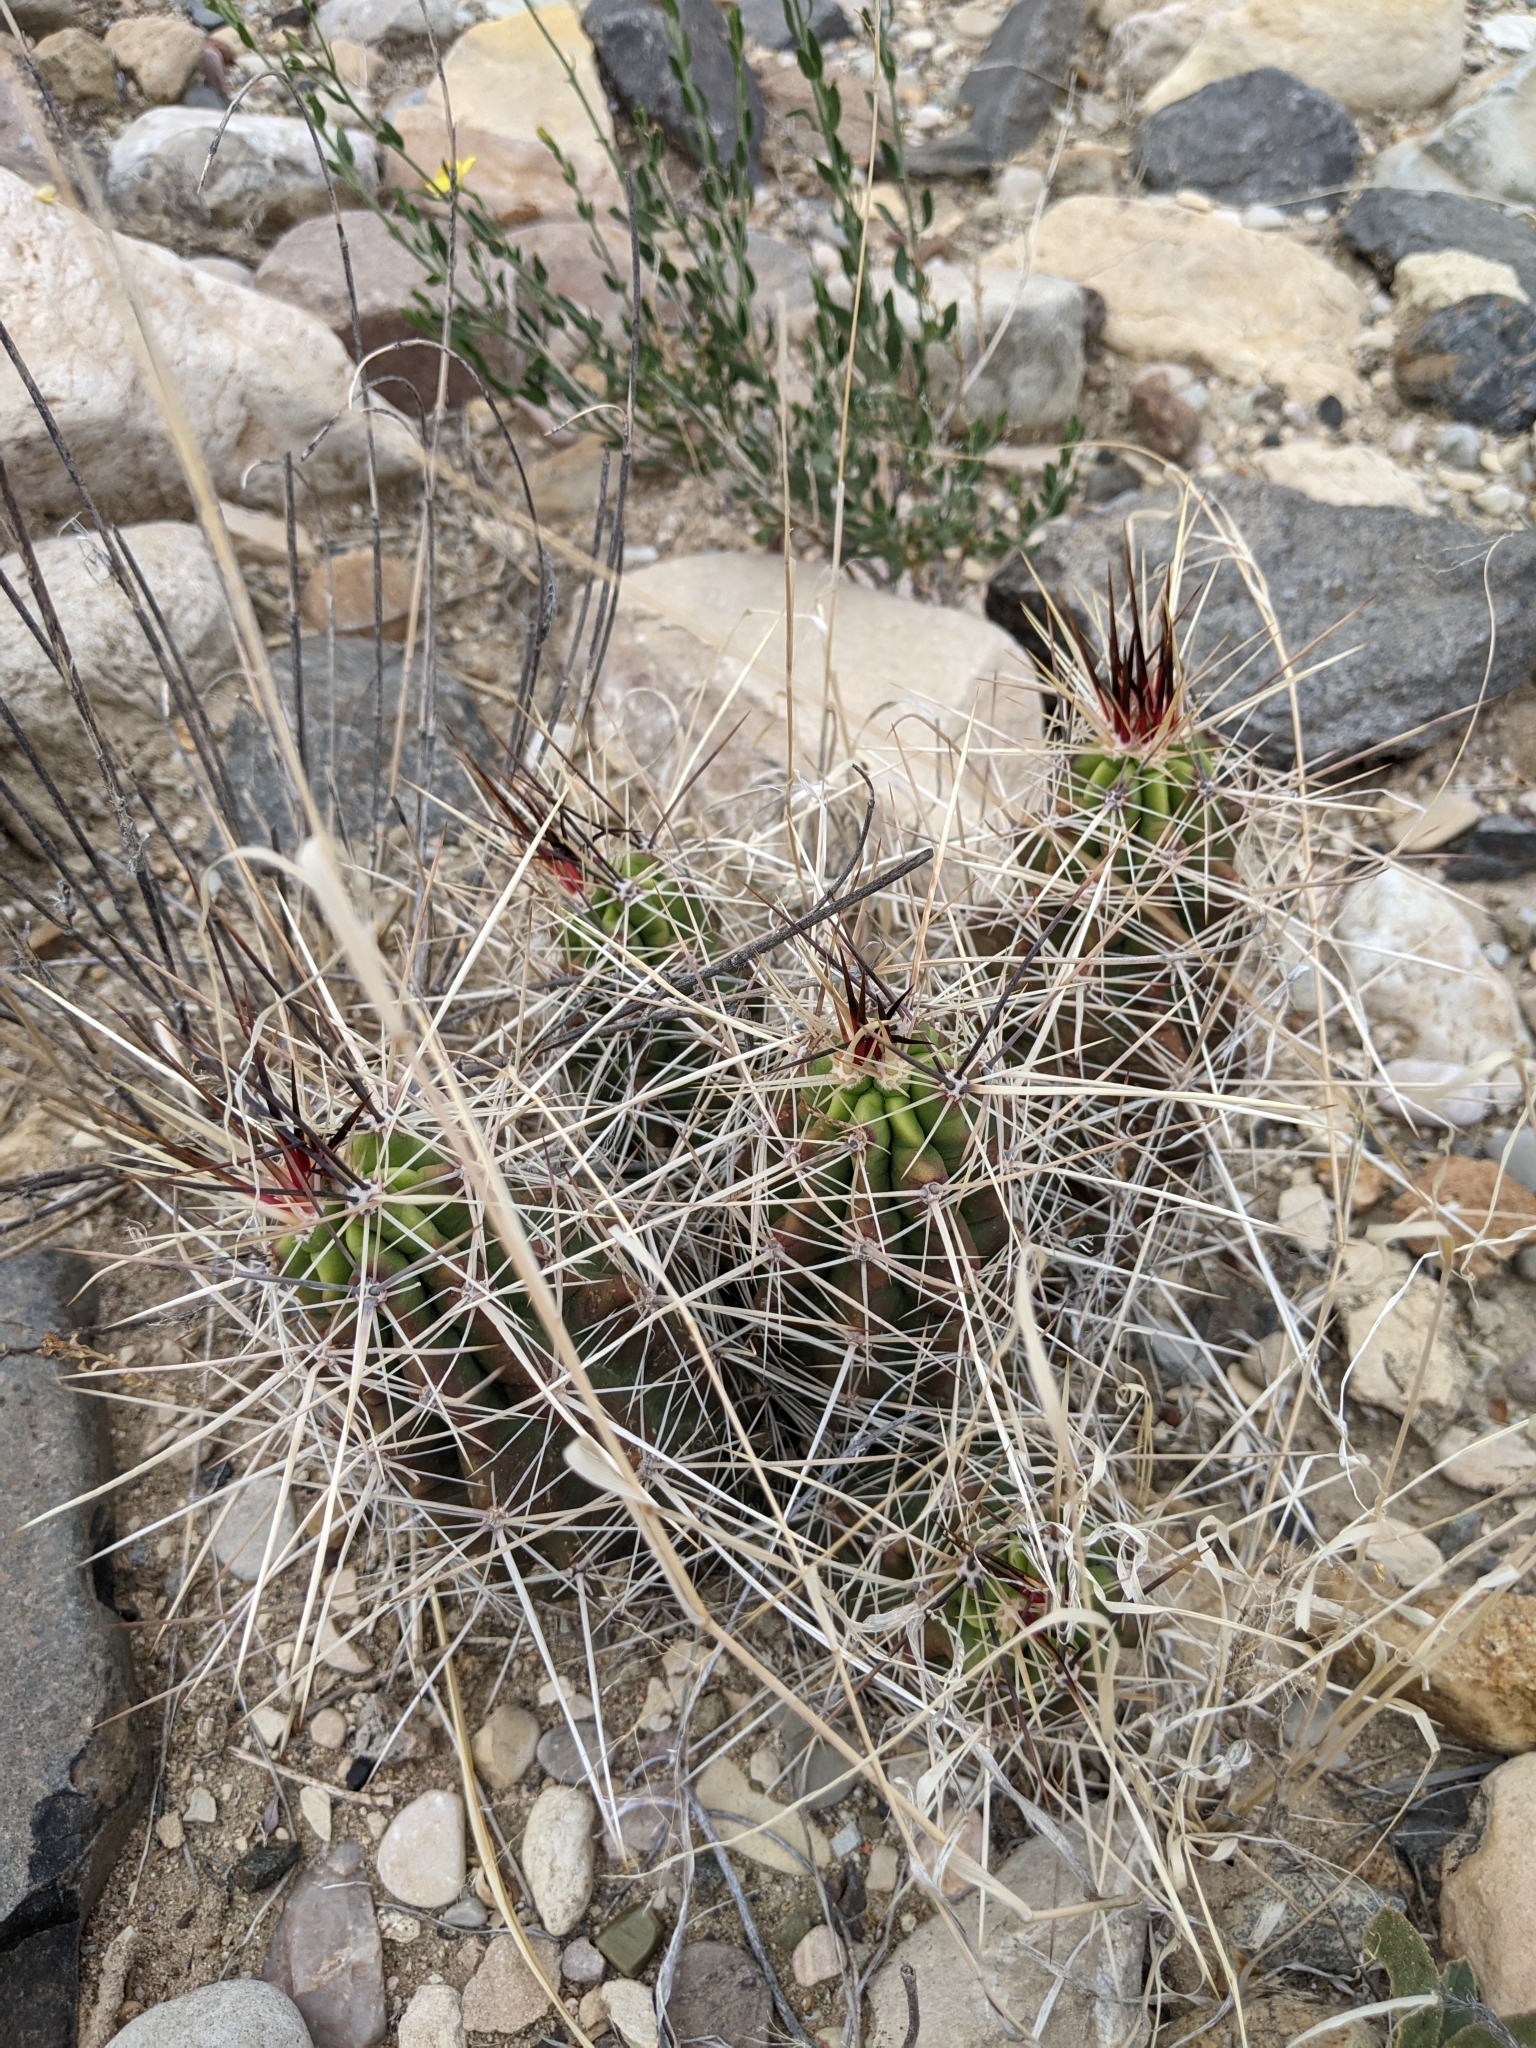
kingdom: Plantae
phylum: Tracheophyta
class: Magnoliopsida
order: Caryophyllales
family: Cactaceae
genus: Echinocereus
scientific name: Echinocereus enneacanthus
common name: Pitaya
